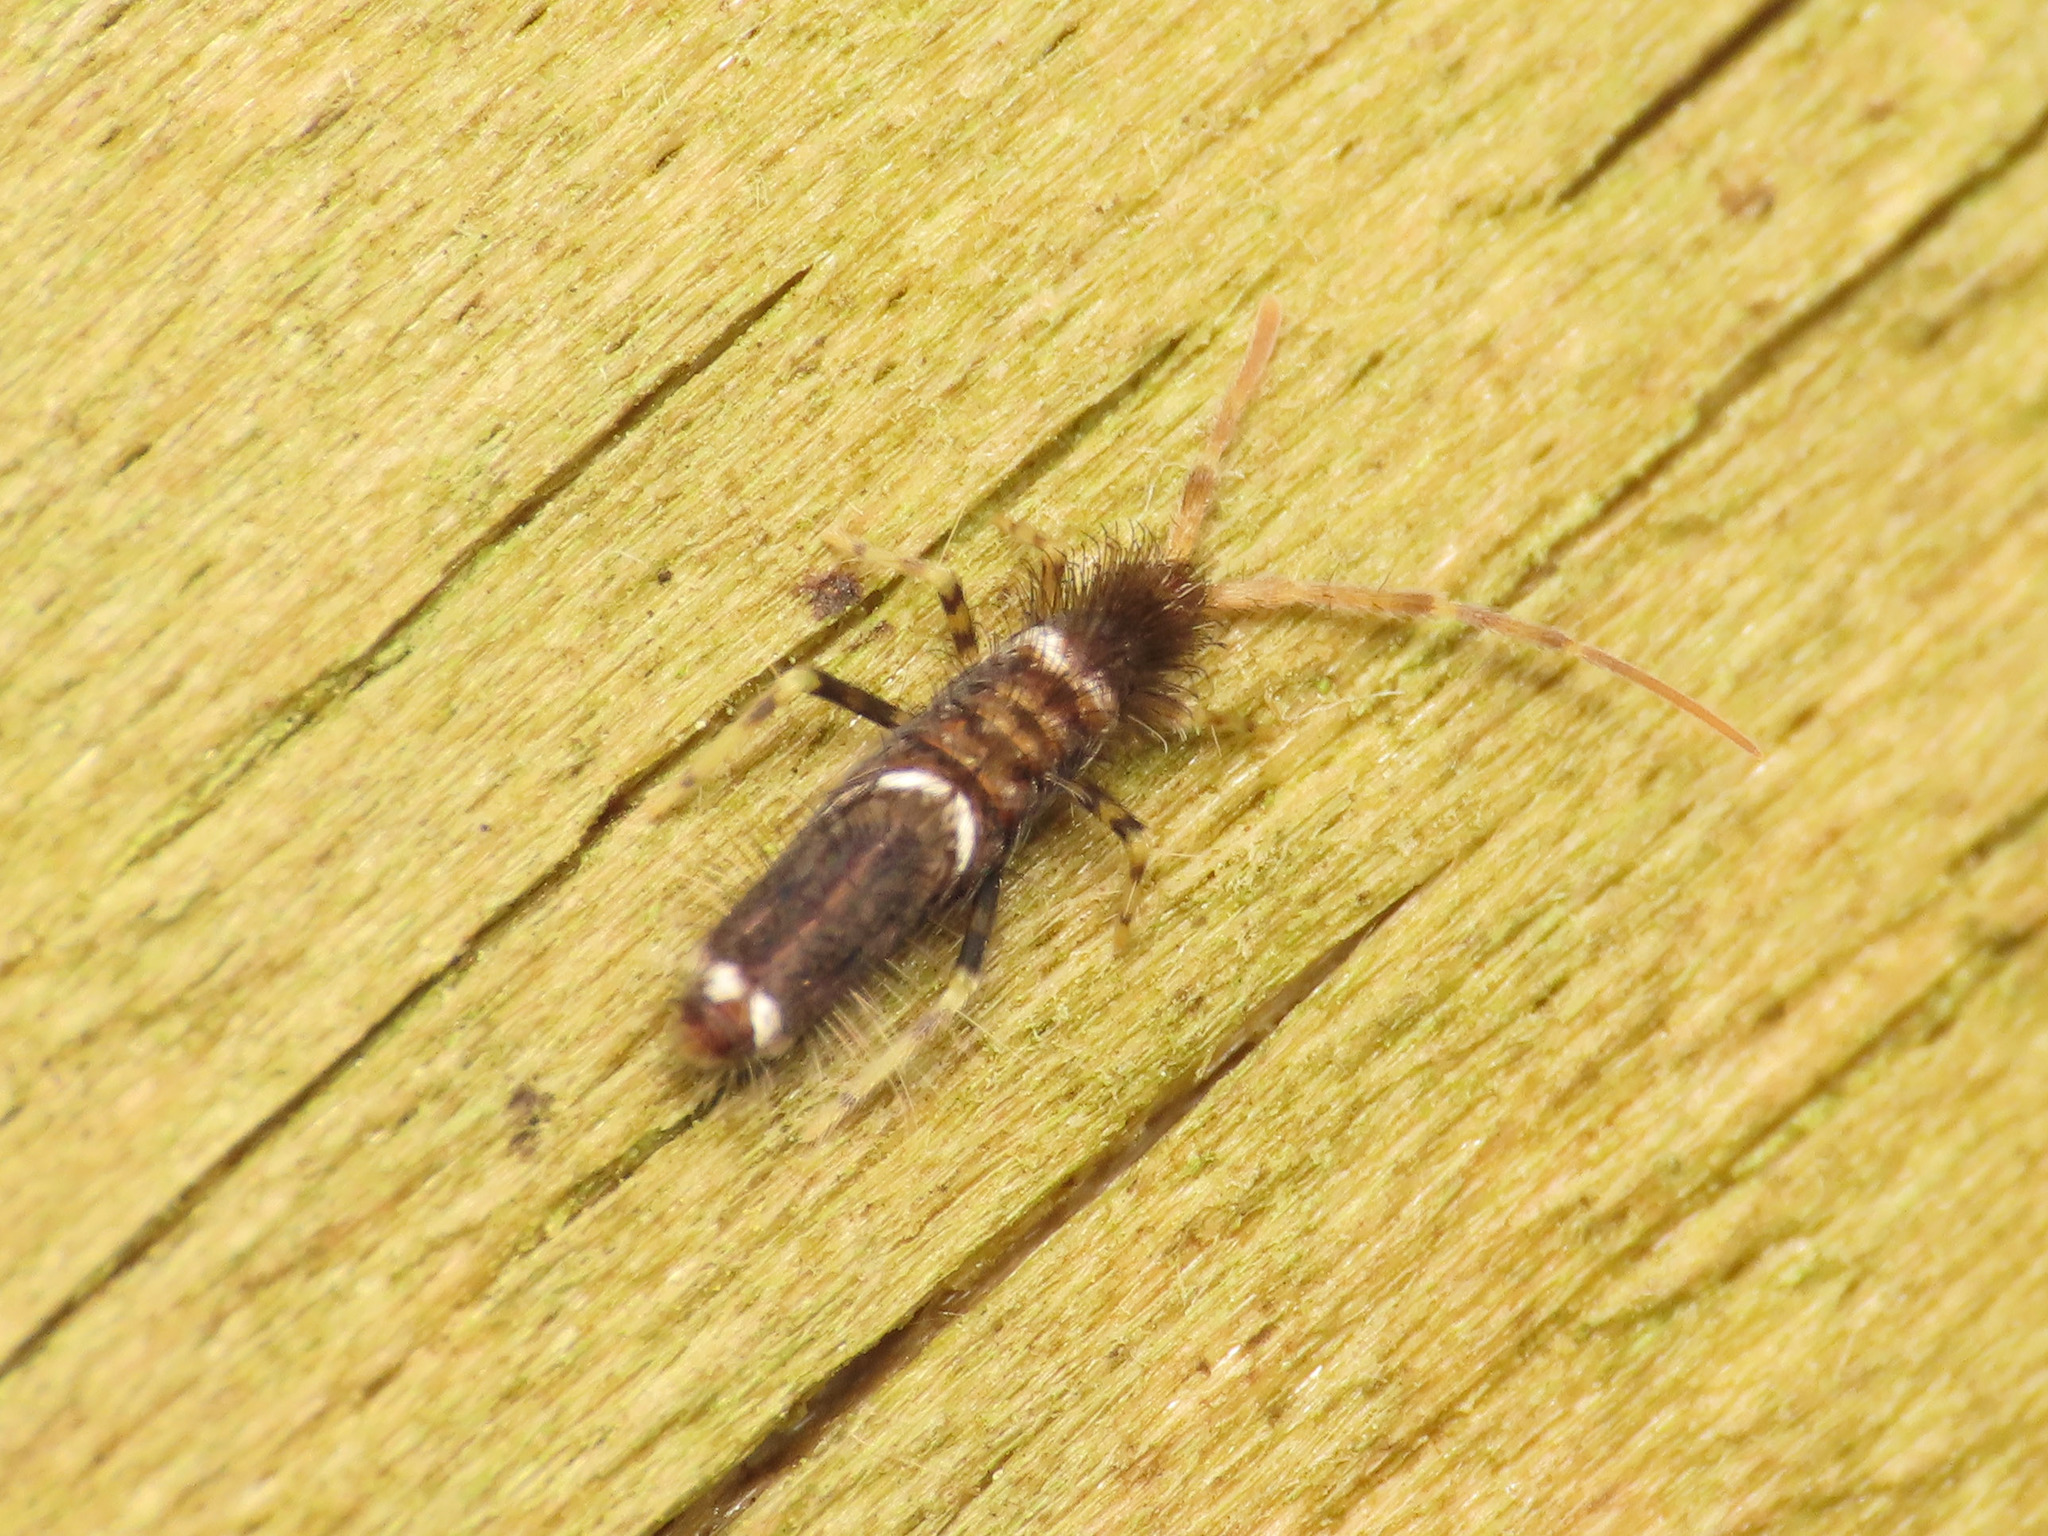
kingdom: Animalia
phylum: Arthropoda
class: Collembola
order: Entomobryomorpha
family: Entomobryidae
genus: Entomobrya
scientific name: Entomobrya dorsalis
